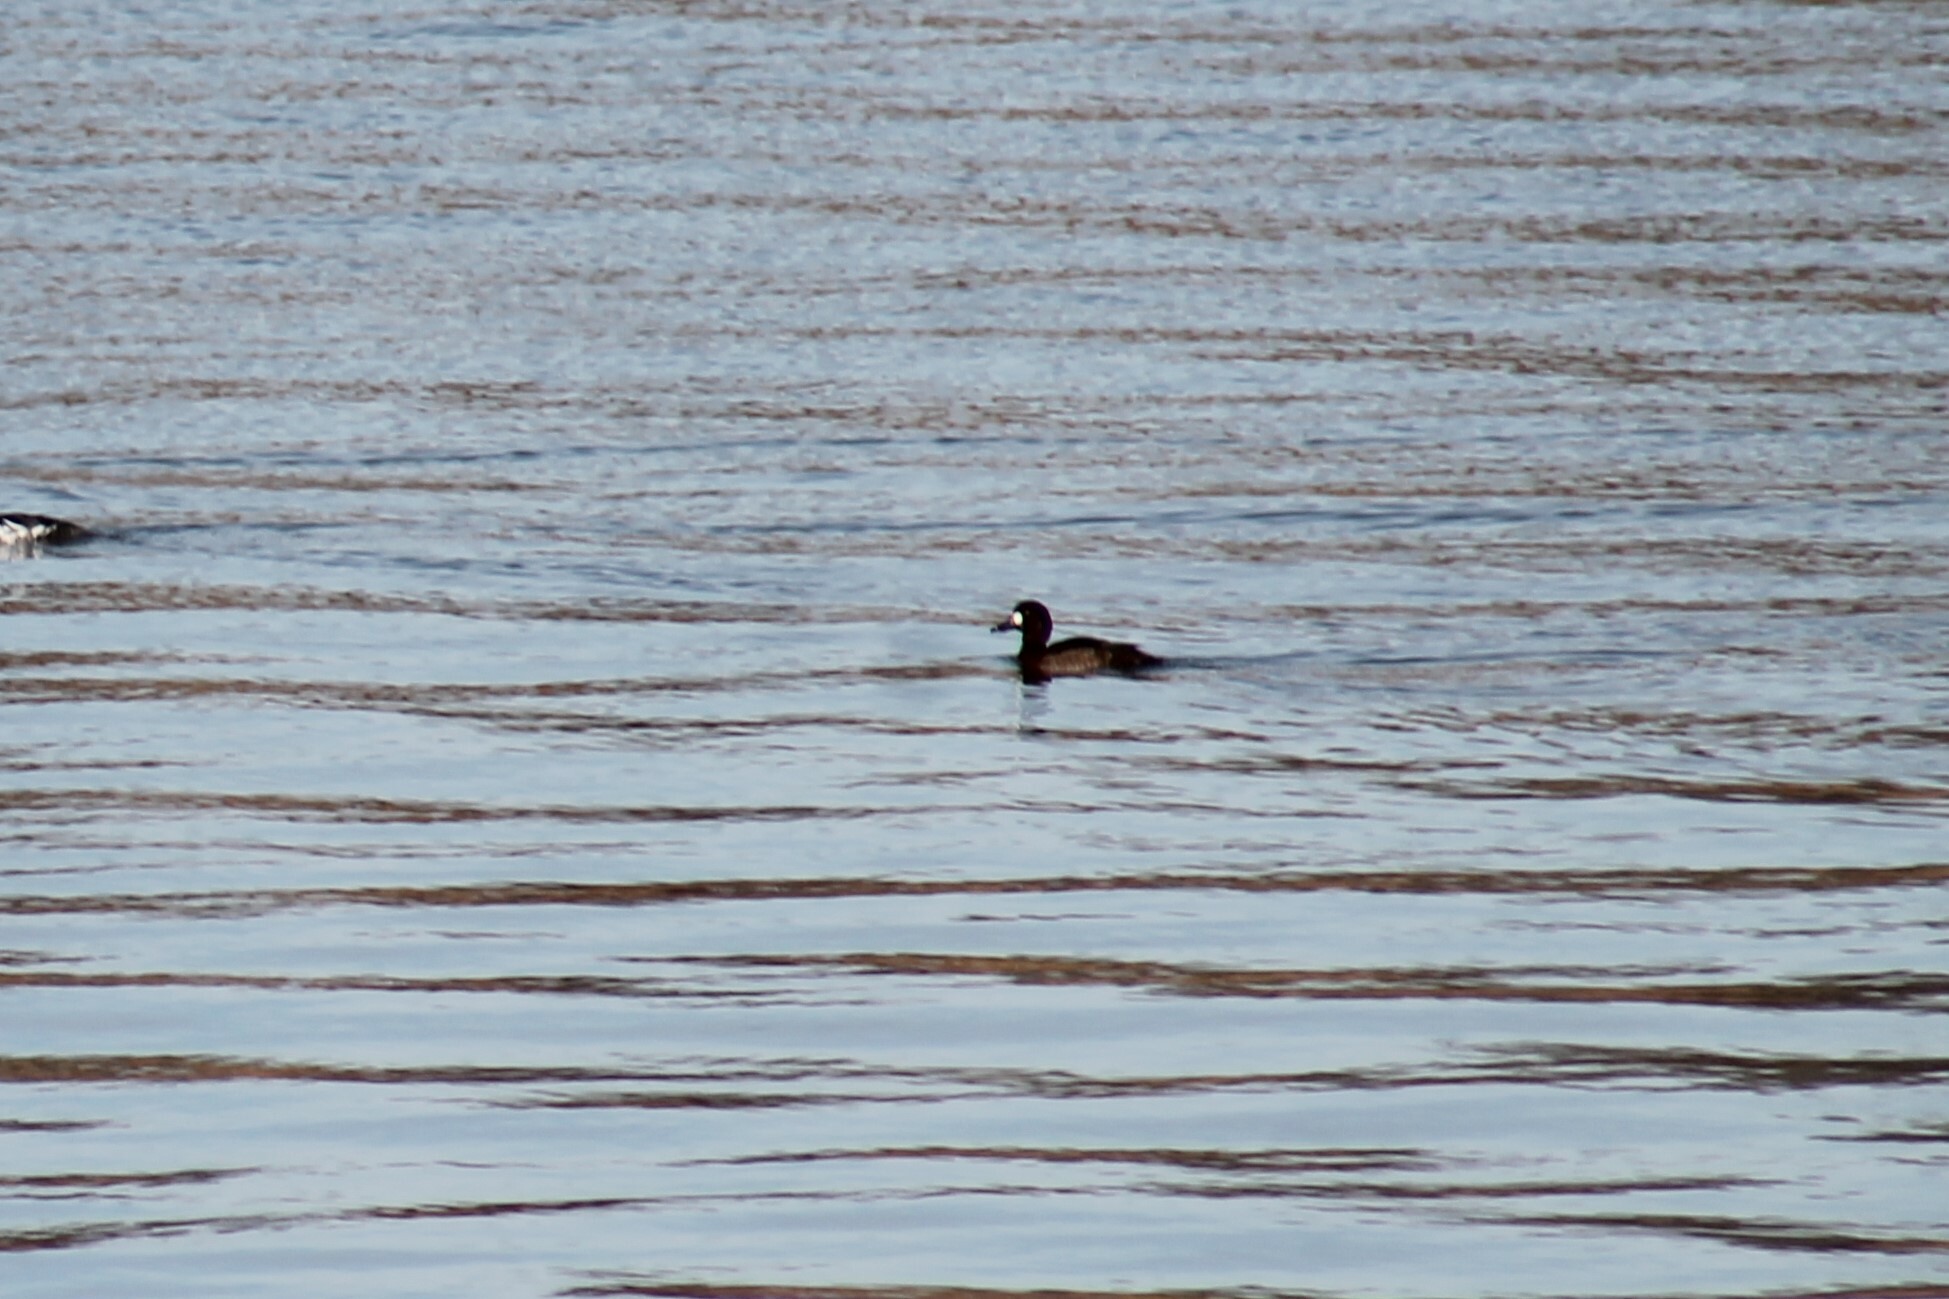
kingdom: Animalia
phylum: Chordata
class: Aves
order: Anseriformes
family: Anatidae
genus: Aythya
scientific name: Aythya marila
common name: Greater scaup
